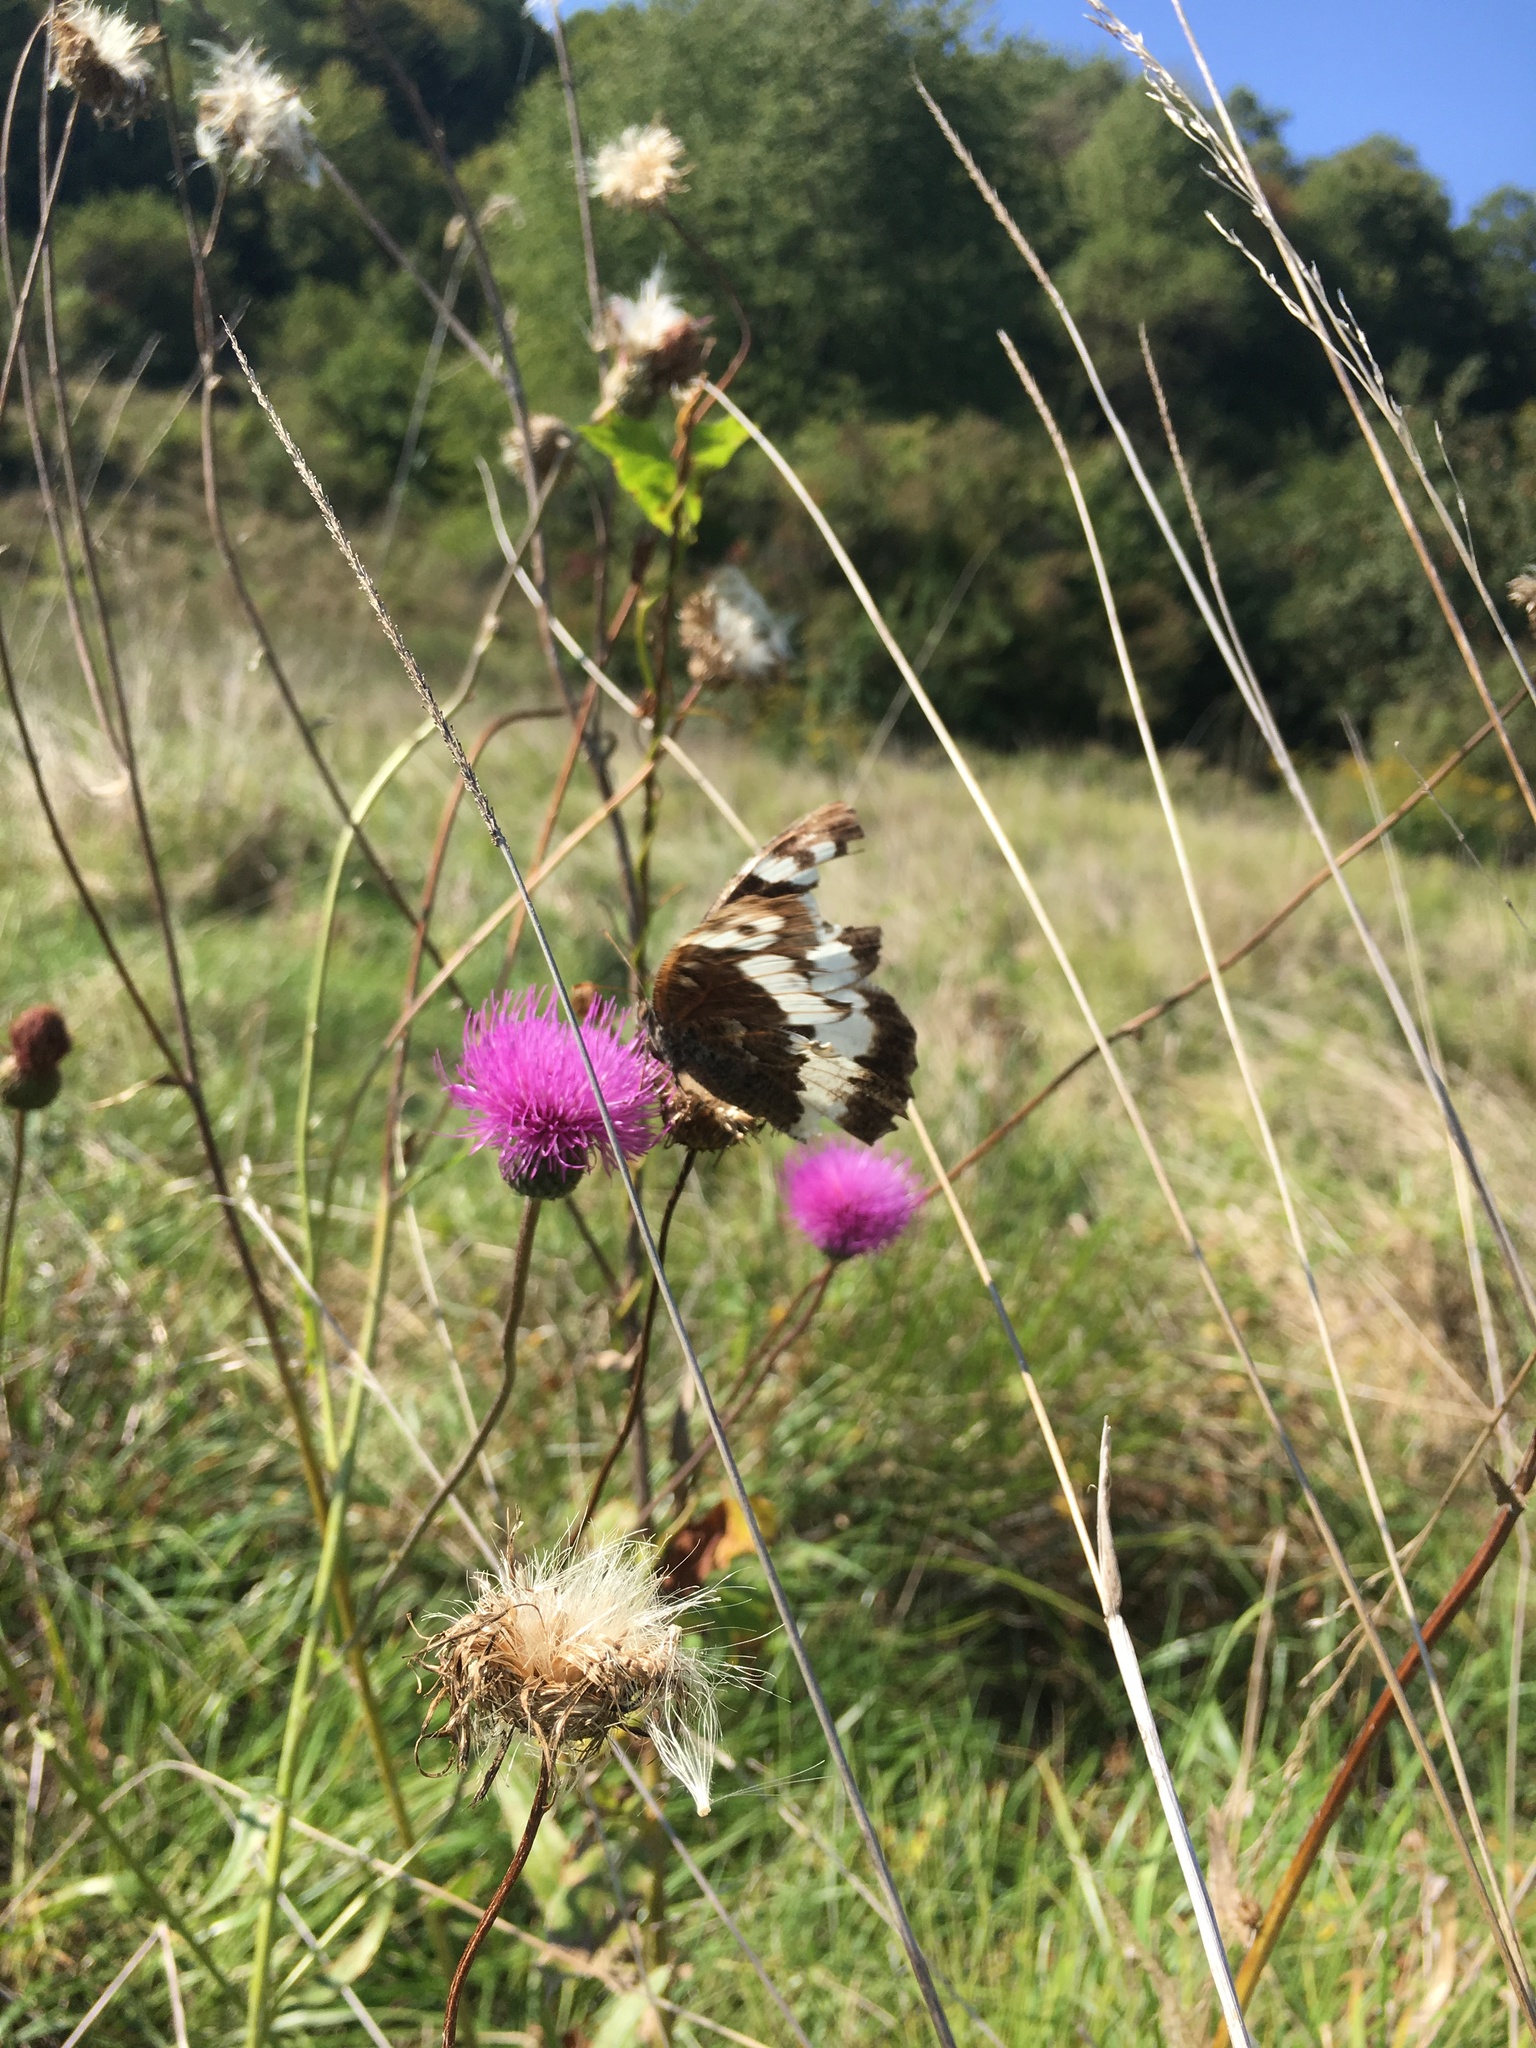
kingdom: Animalia
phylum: Arthropoda
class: Insecta
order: Lepidoptera
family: Lycaenidae
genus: Loweia
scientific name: Loweia tityrus
